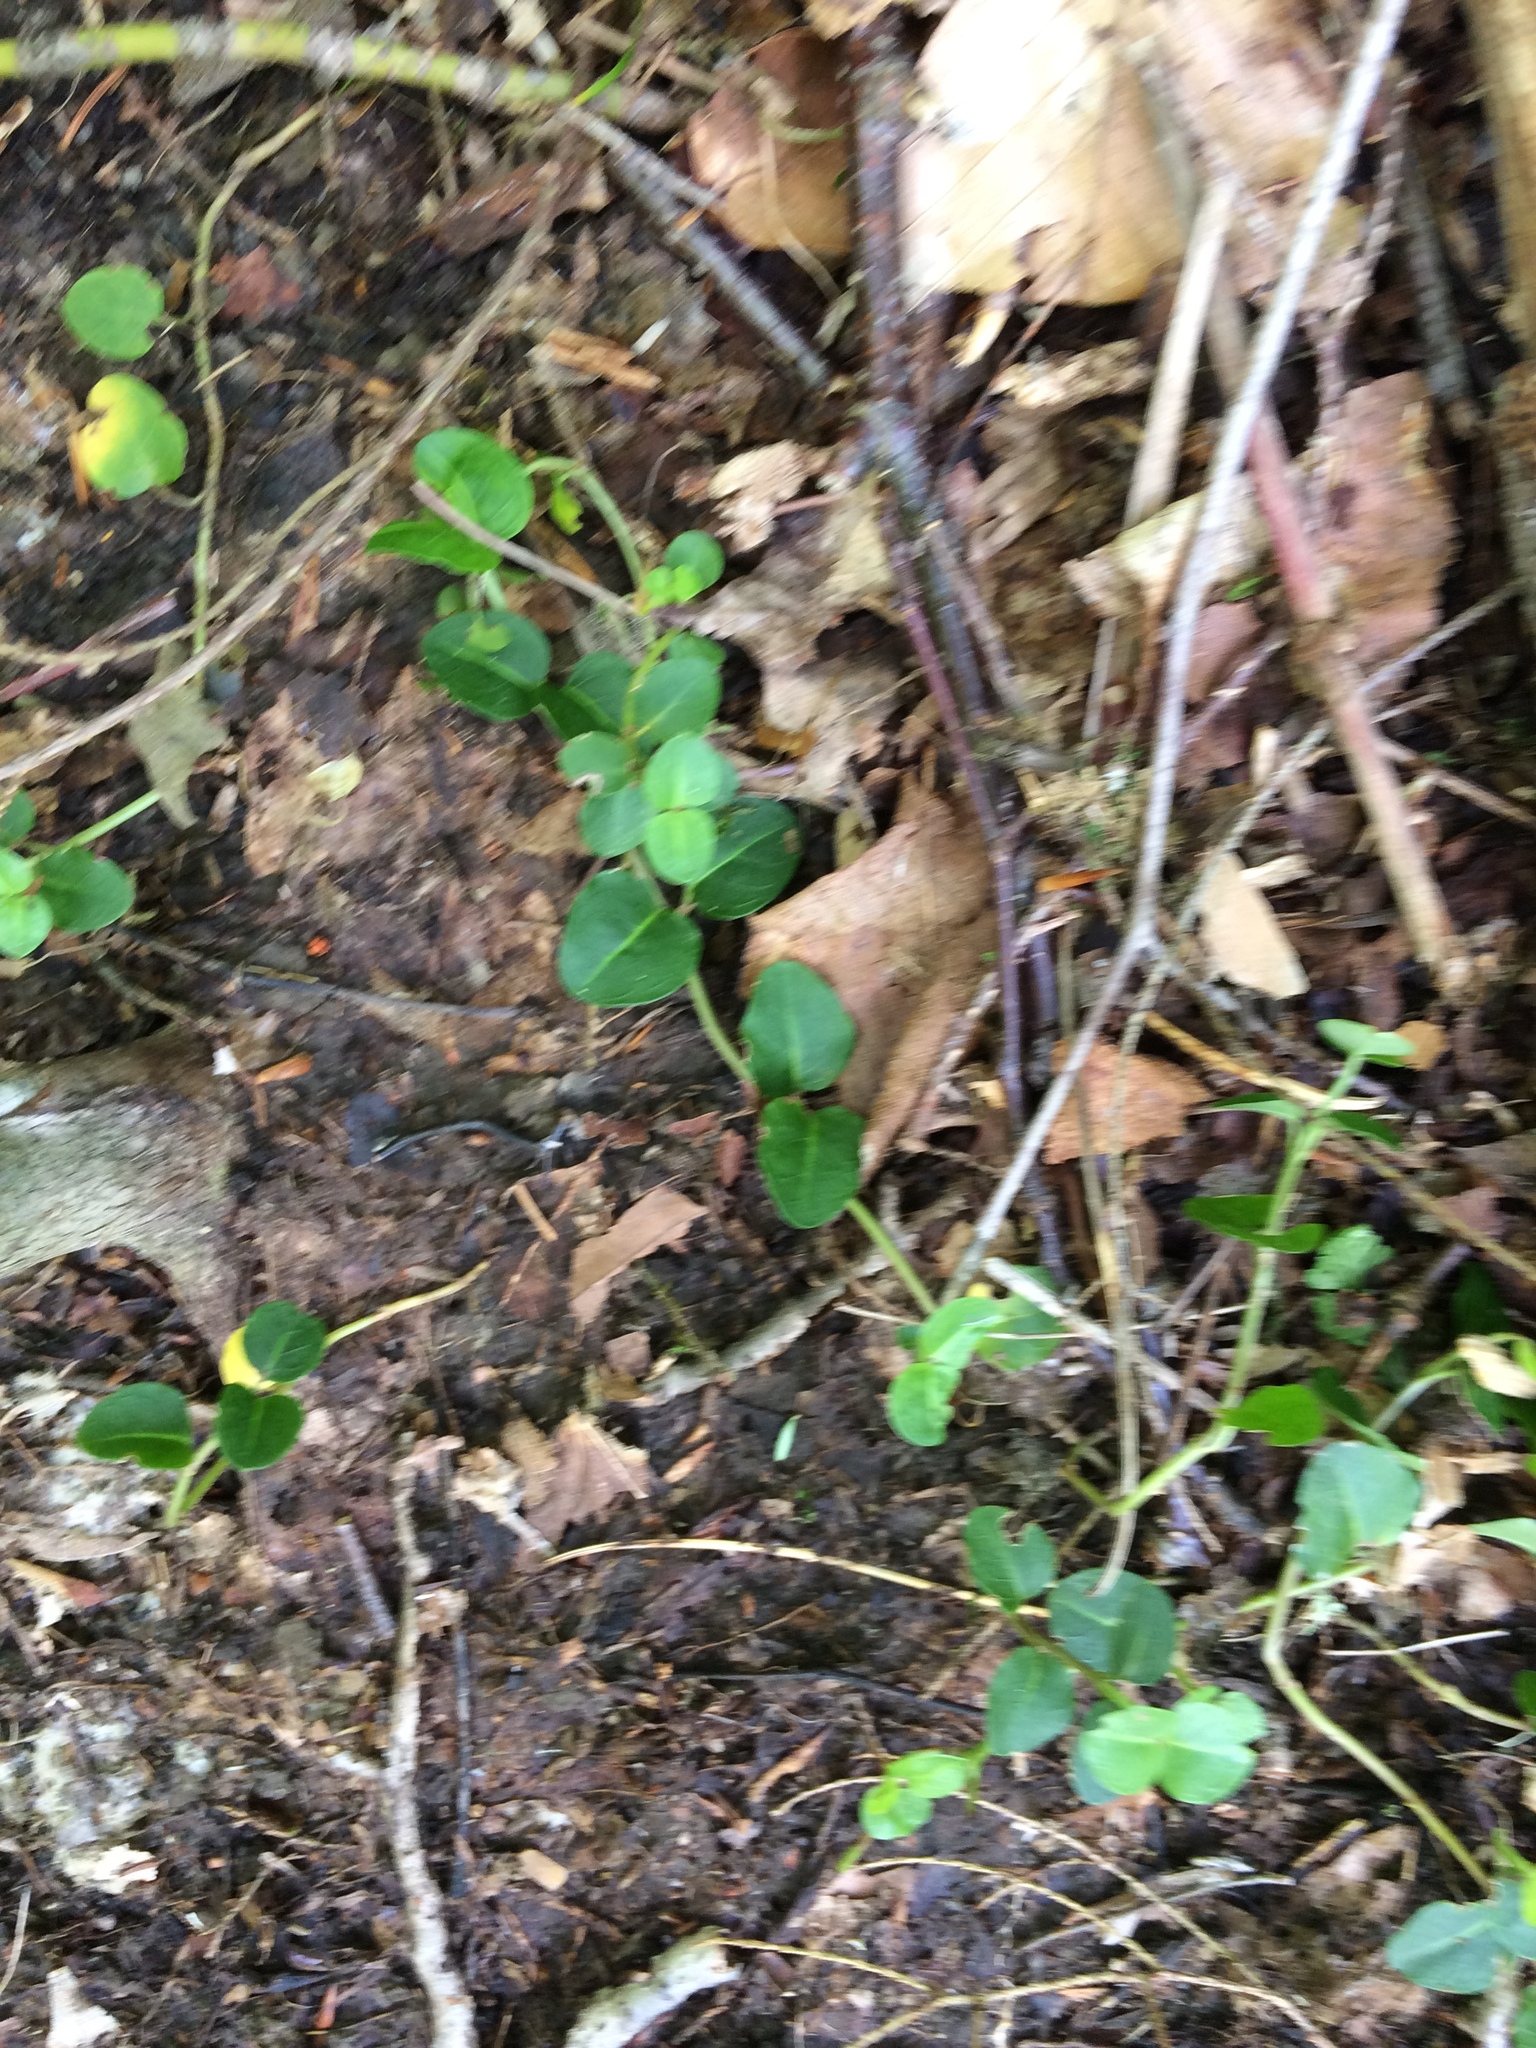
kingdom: Plantae
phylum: Tracheophyta
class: Magnoliopsida
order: Gentianales
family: Rubiaceae
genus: Mitchella
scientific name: Mitchella repens
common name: Partridge-berry
